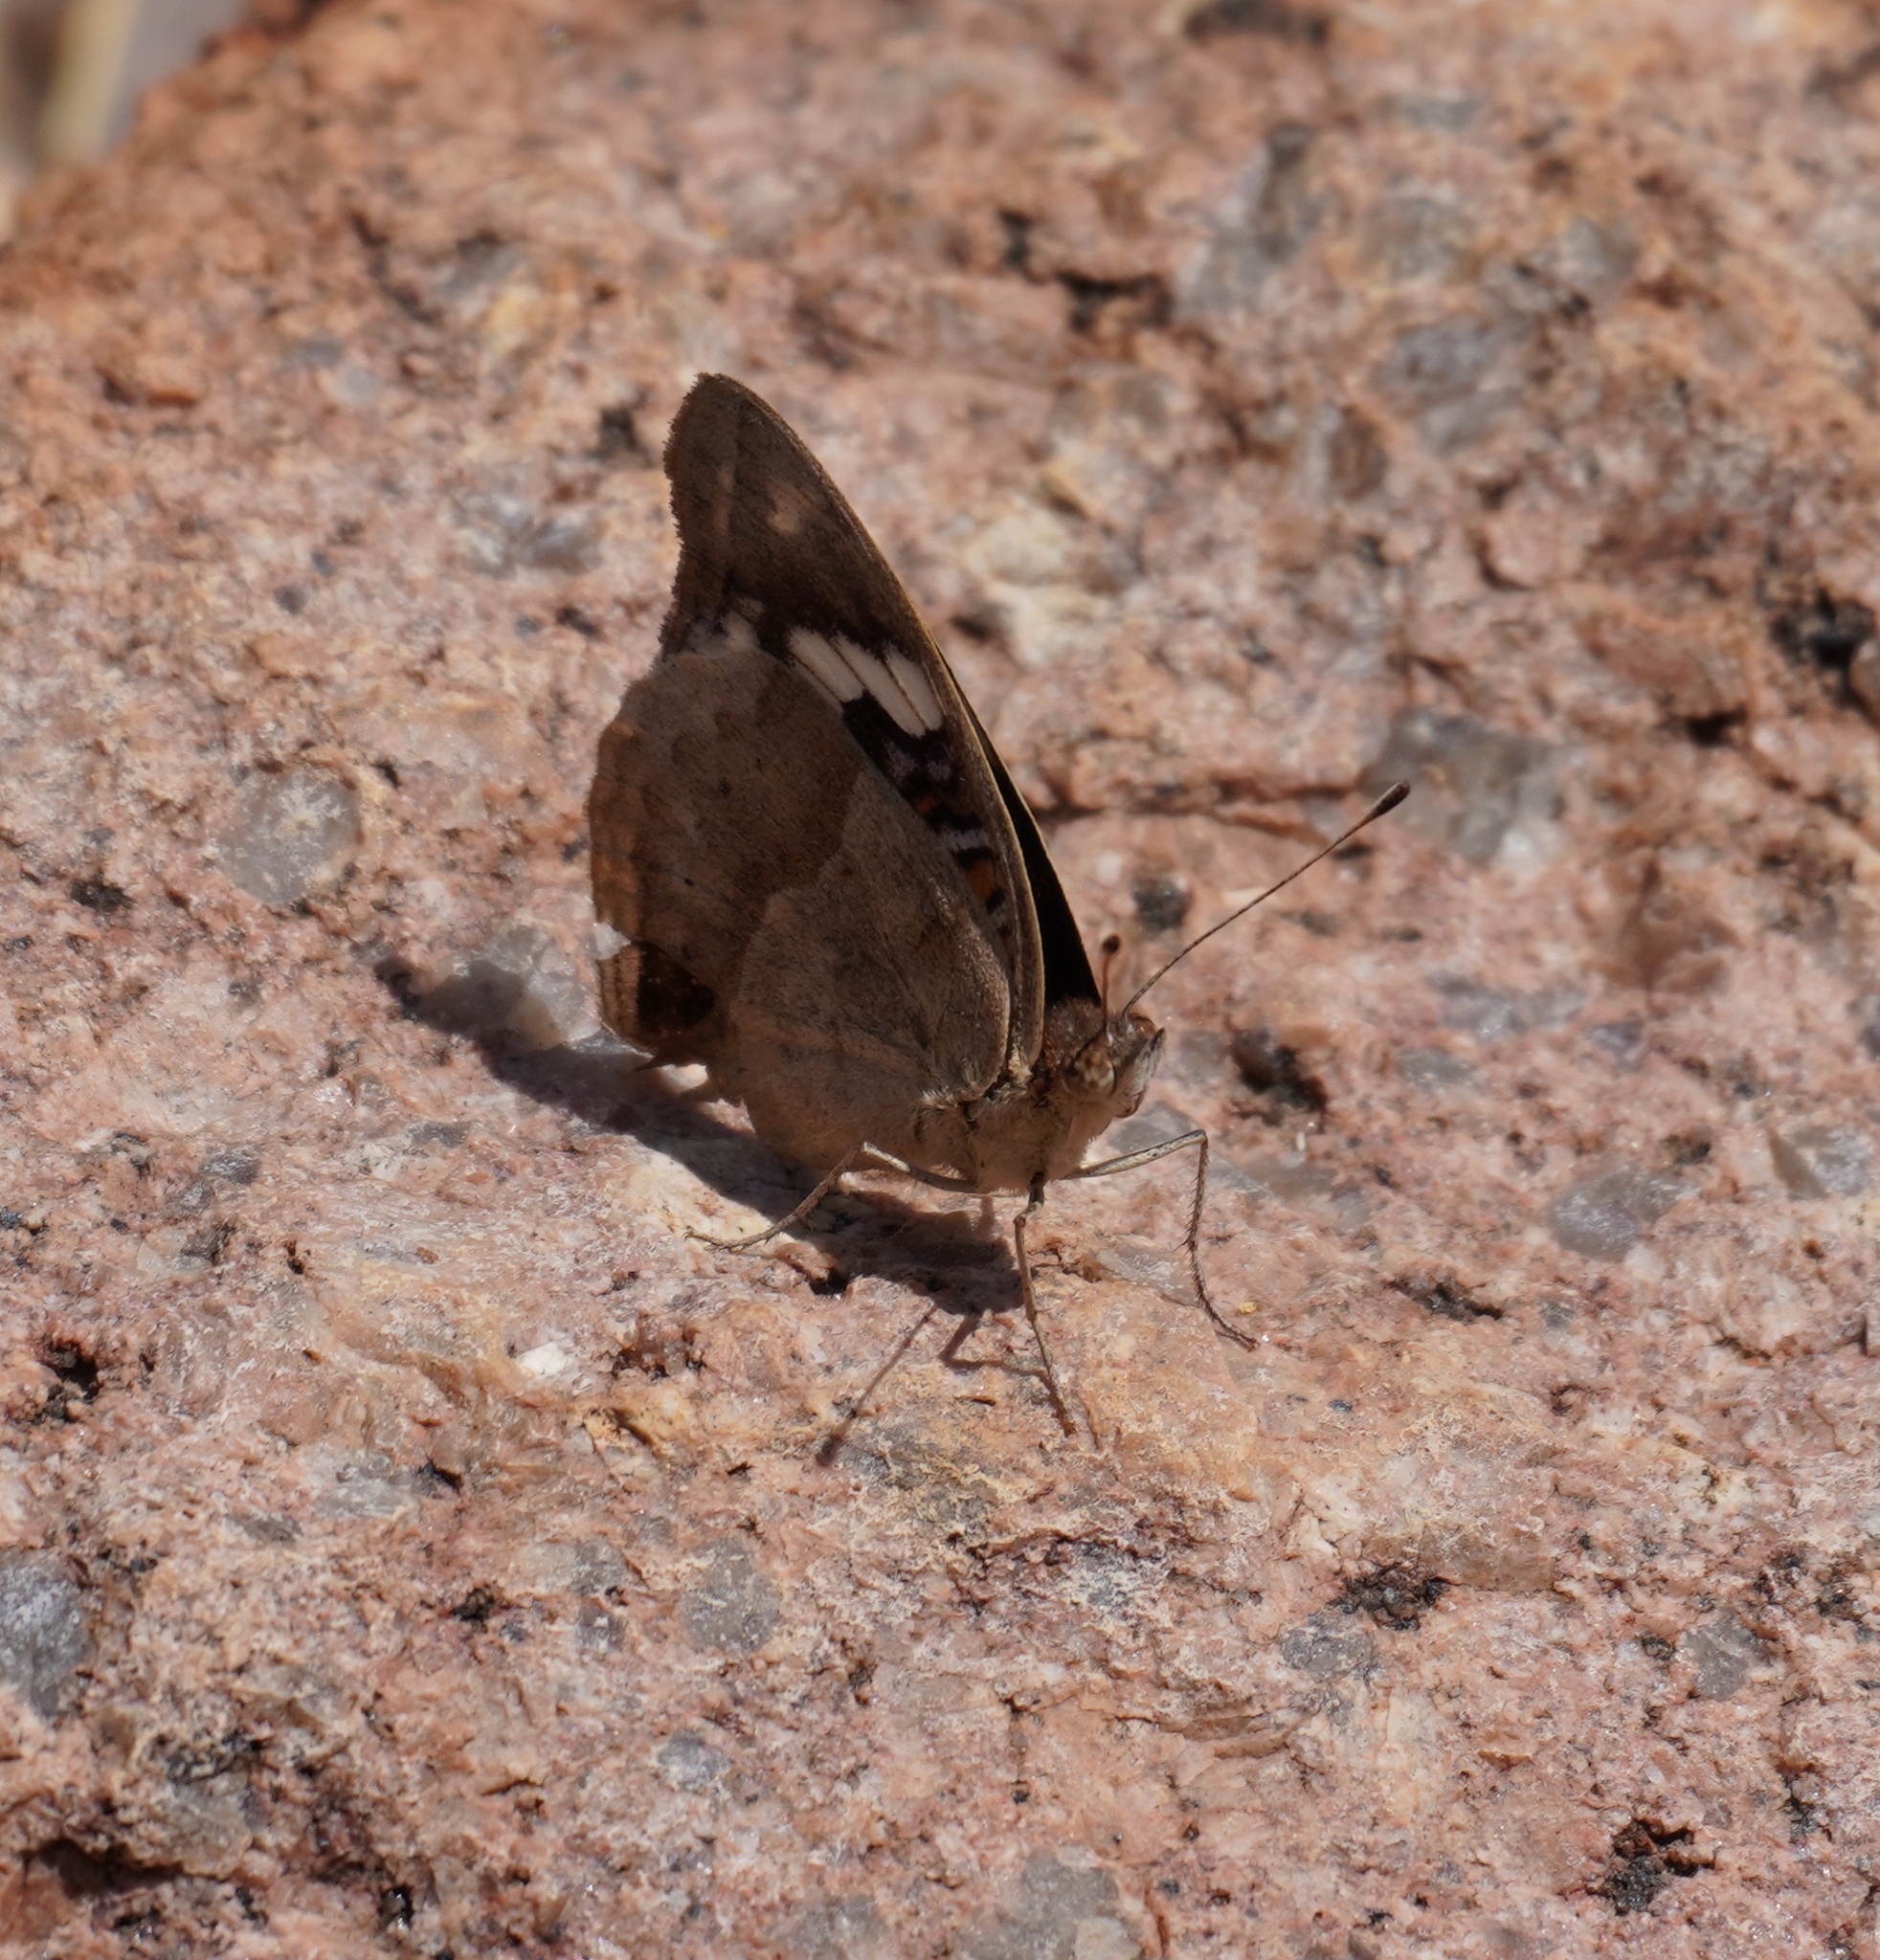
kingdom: Animalia
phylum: Arthropoda
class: Insecta
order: Lepidoptera
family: Nymphalidae
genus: Junonia
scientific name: Junonia oenone
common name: Dark blue pansy
